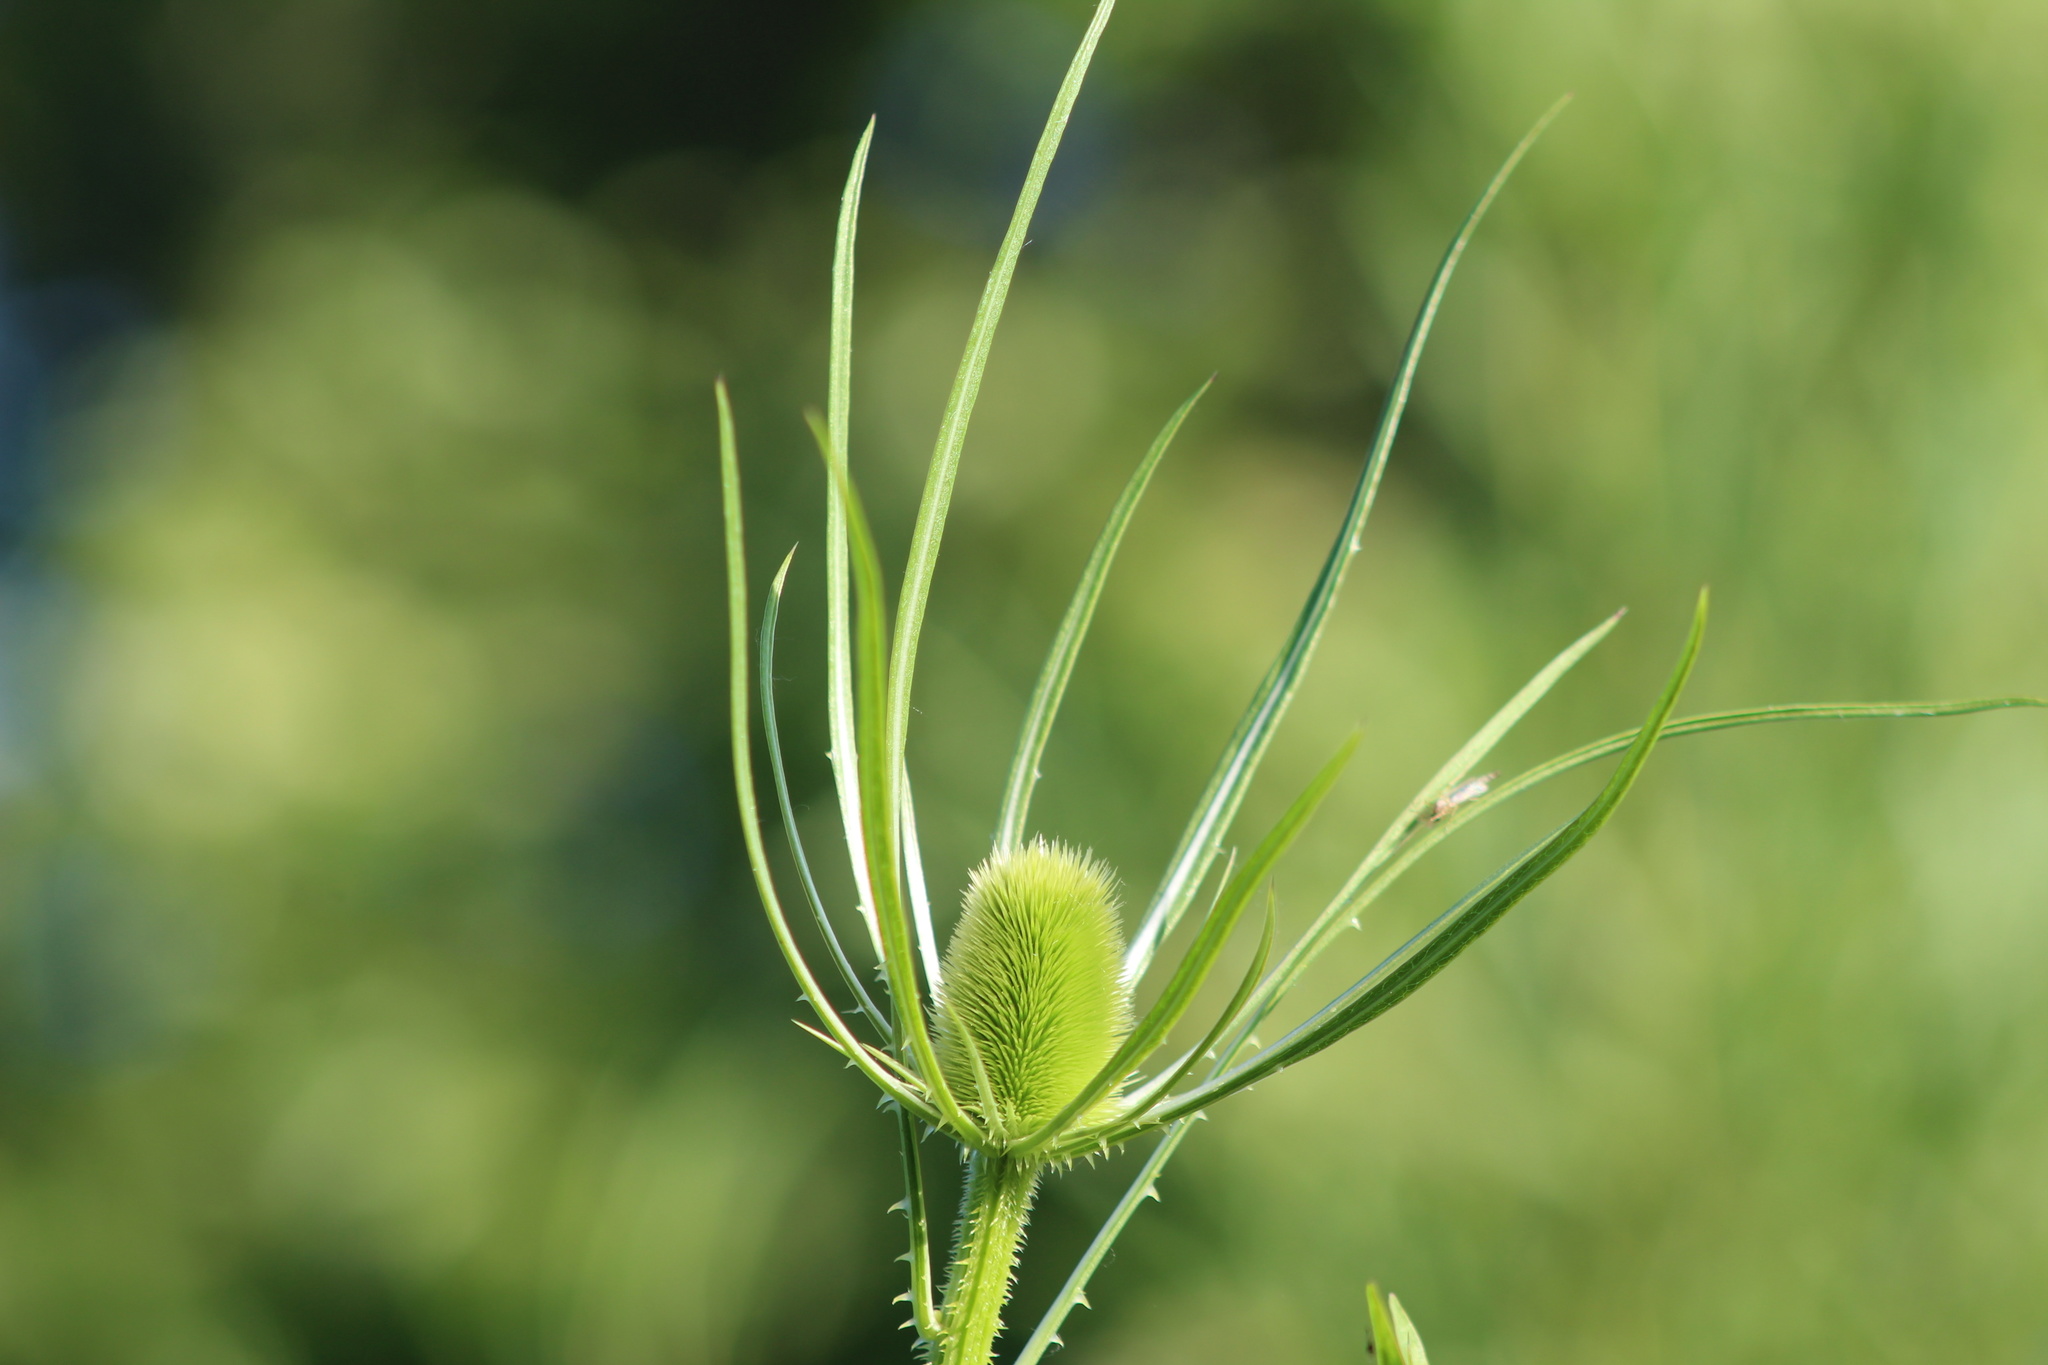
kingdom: Plantae
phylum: Tracheophyta
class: Magnoliopsida
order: Dipsacales
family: Caprifoliaceae
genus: Dipsacus
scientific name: Dipsacus fullonum
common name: Teasel
